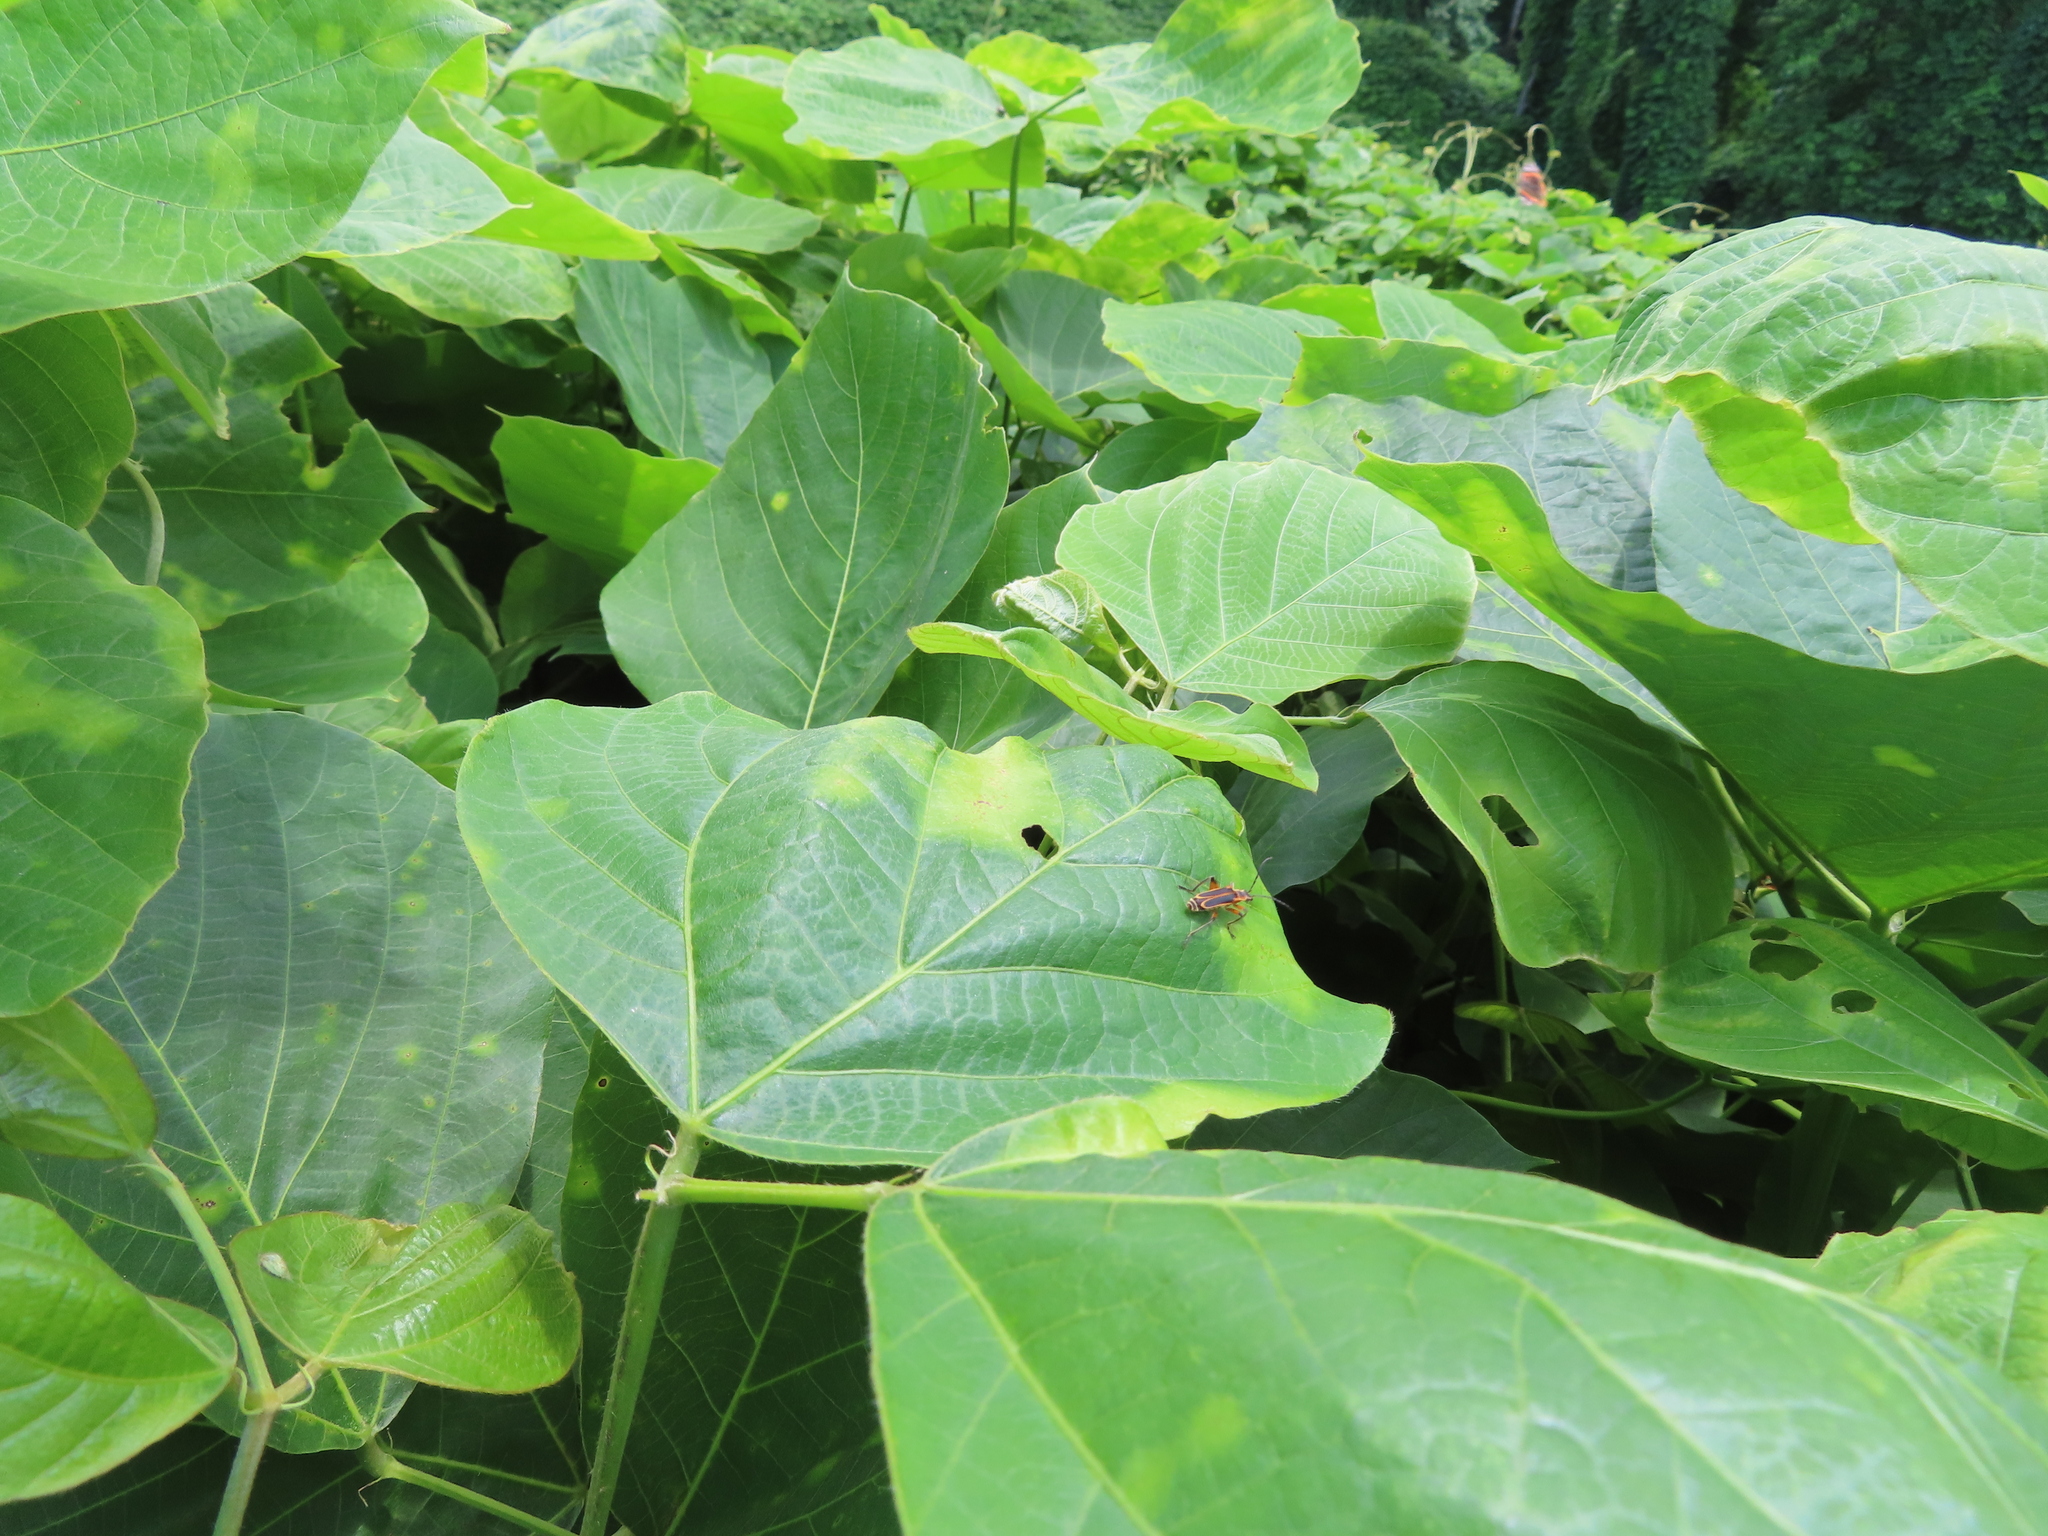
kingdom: Animalia
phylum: Arthropoda
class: Insecta
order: Coleoptera
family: Cantharidae
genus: Chauliognathus
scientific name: Chauliognathus marginatus
